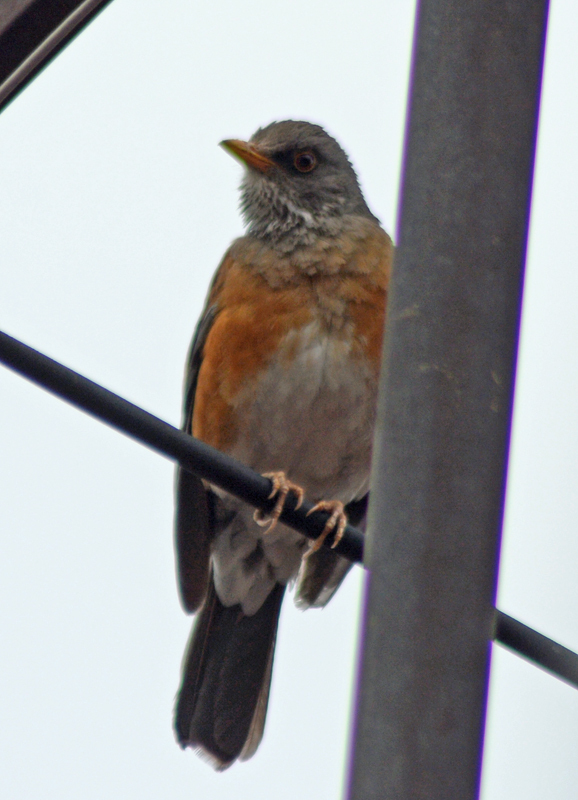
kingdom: Animalia
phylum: Chordata
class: Aves
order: Passeriformes
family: Turdidae
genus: Turdus
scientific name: Turdus rufopalliatus
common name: Rufous-backed robin
